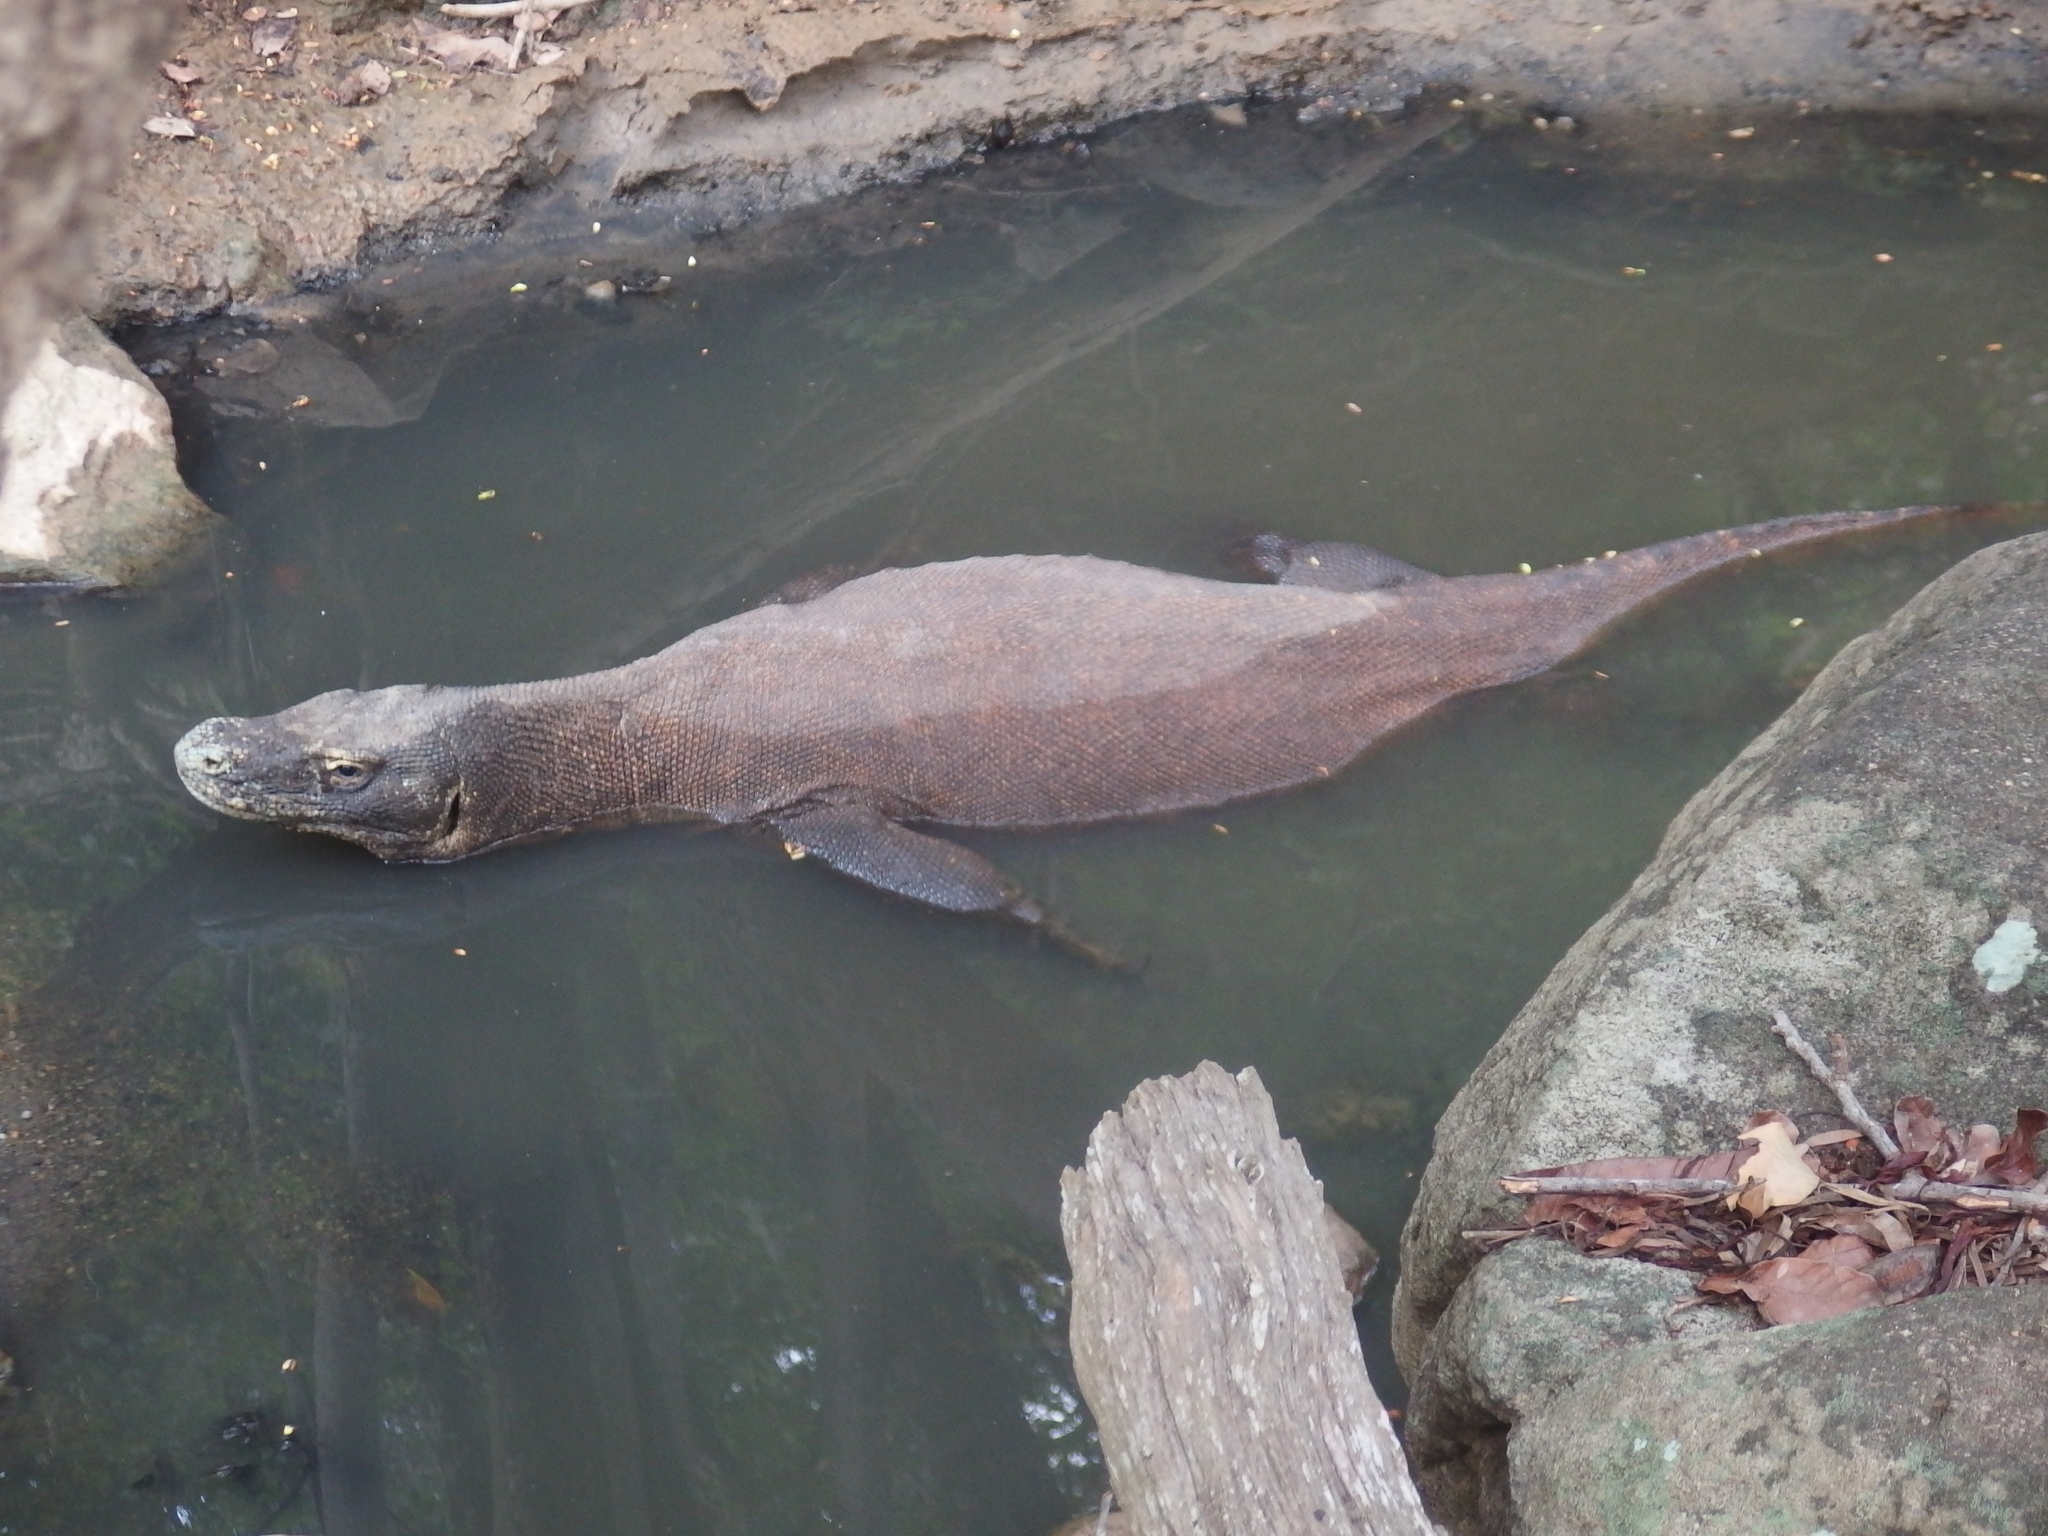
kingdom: Animalia
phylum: Chordata
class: Squamata
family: Varanidae
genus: Varanus
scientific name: Varanus komodoensis
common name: Komodo dragon
